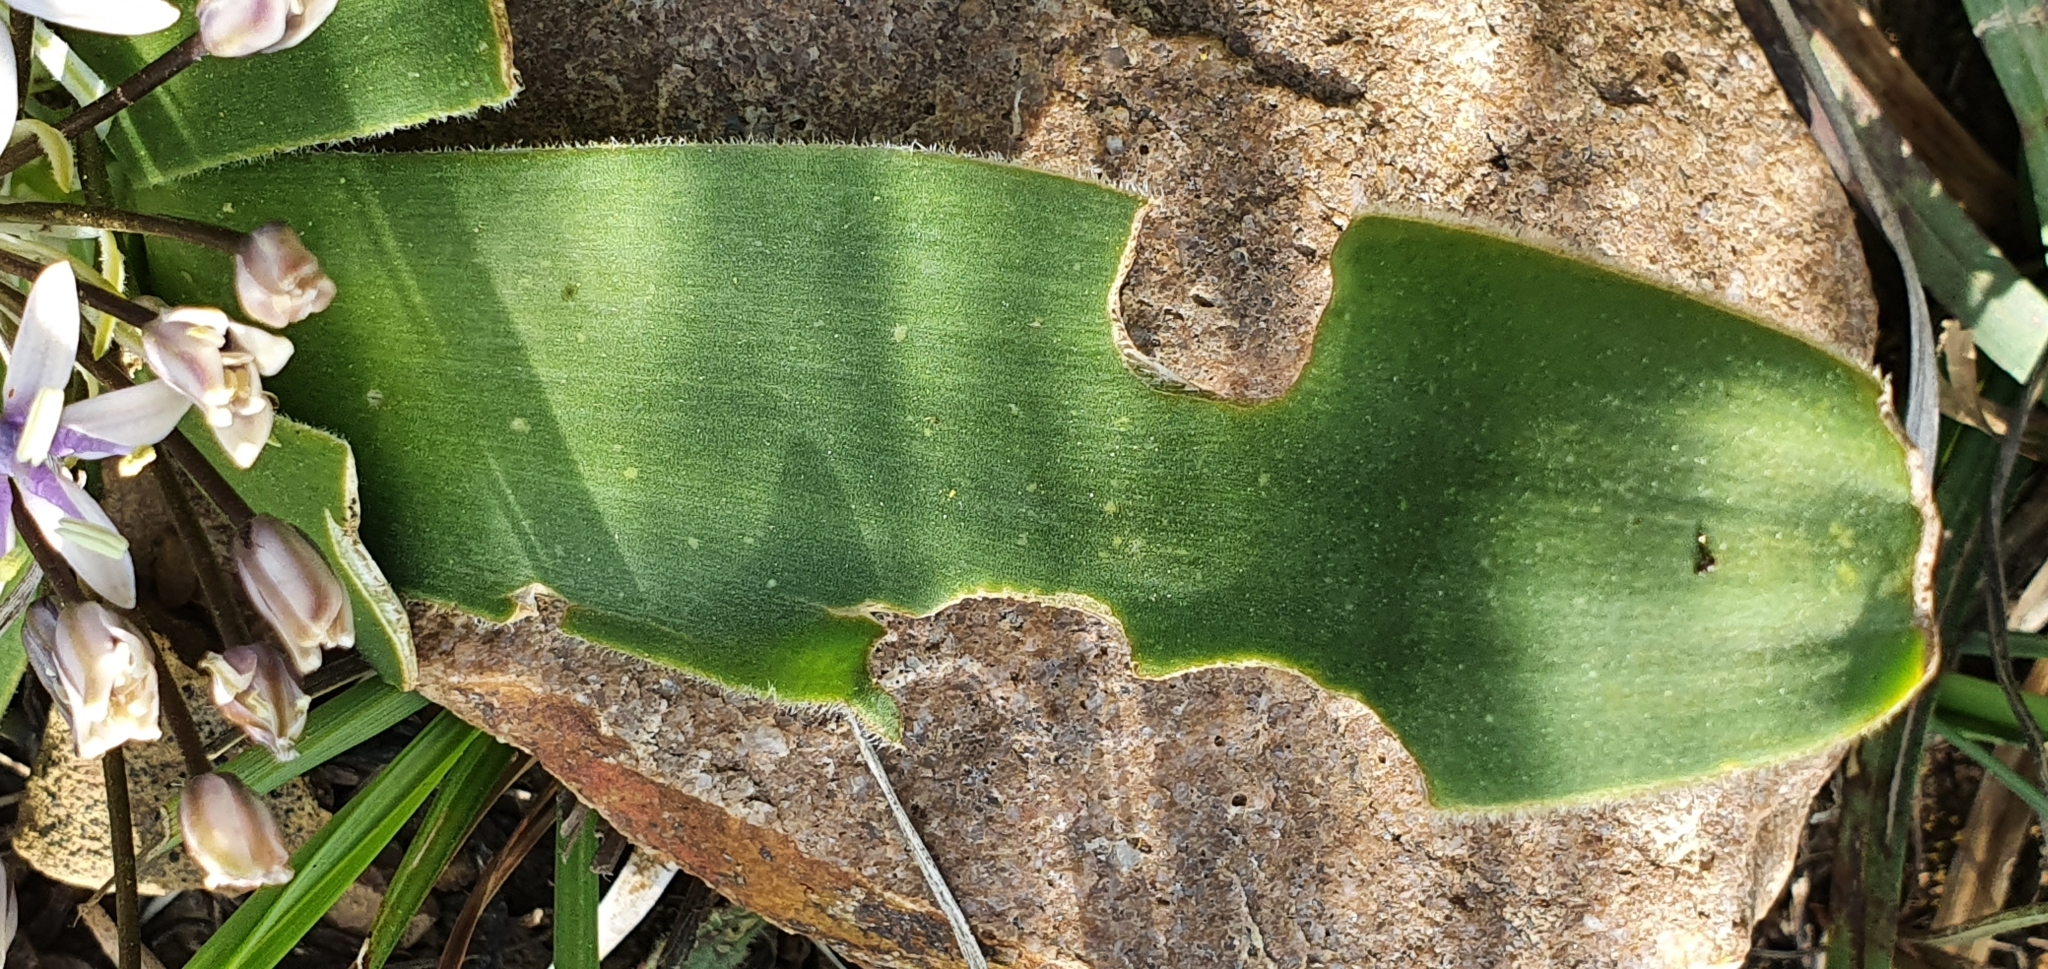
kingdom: Plantae
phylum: Tracheophyta
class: Liliopsida
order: Asparagales
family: Asparagaceae
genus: Scilla
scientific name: Scilla peruviana
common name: Portuguese squill
